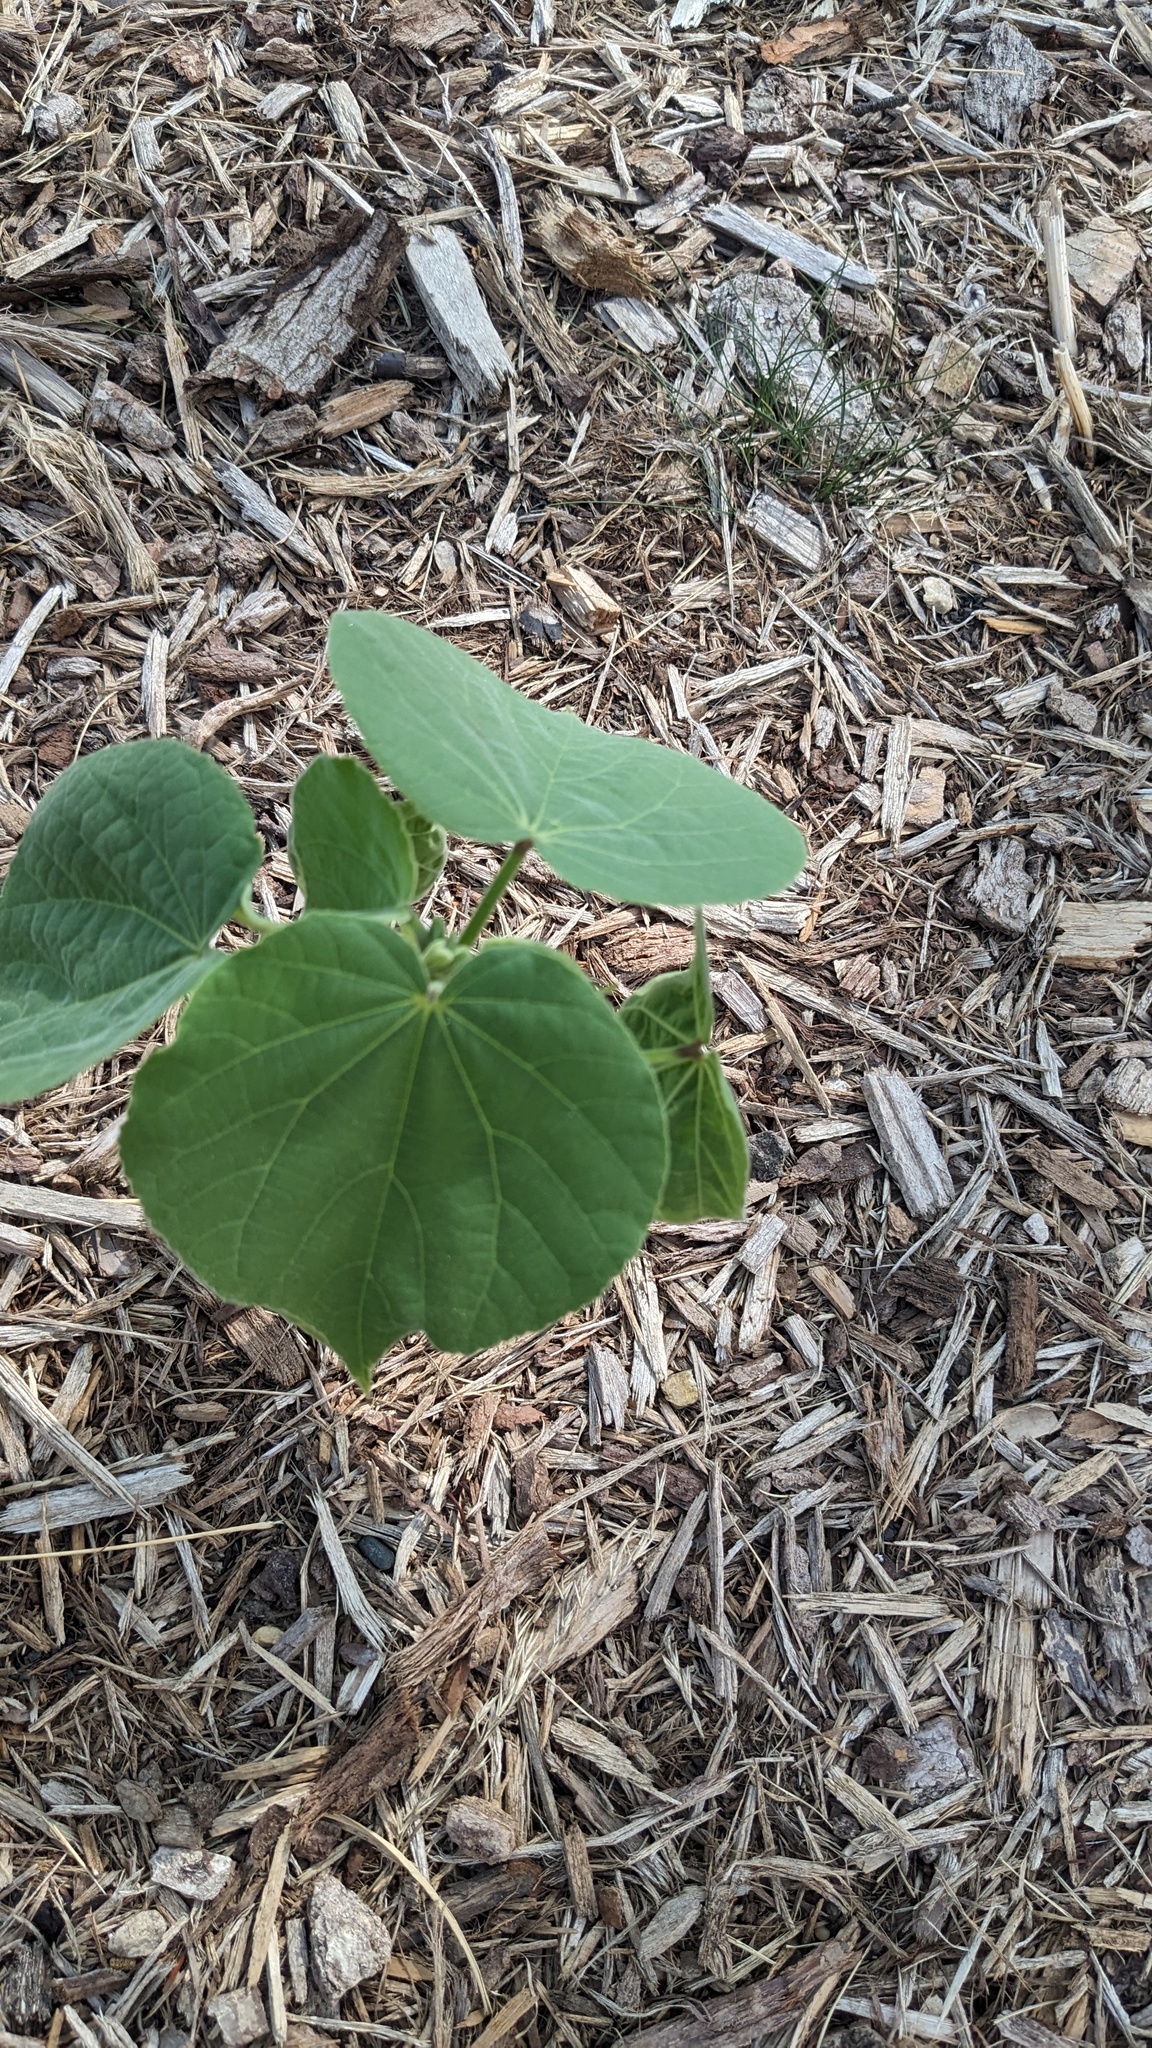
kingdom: Plantae
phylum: Tracheophyta
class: Magnoliopsida
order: Malvales
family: Malvaceae
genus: Abutilon
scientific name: Abutilon theophrasti
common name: Velvetleaf
